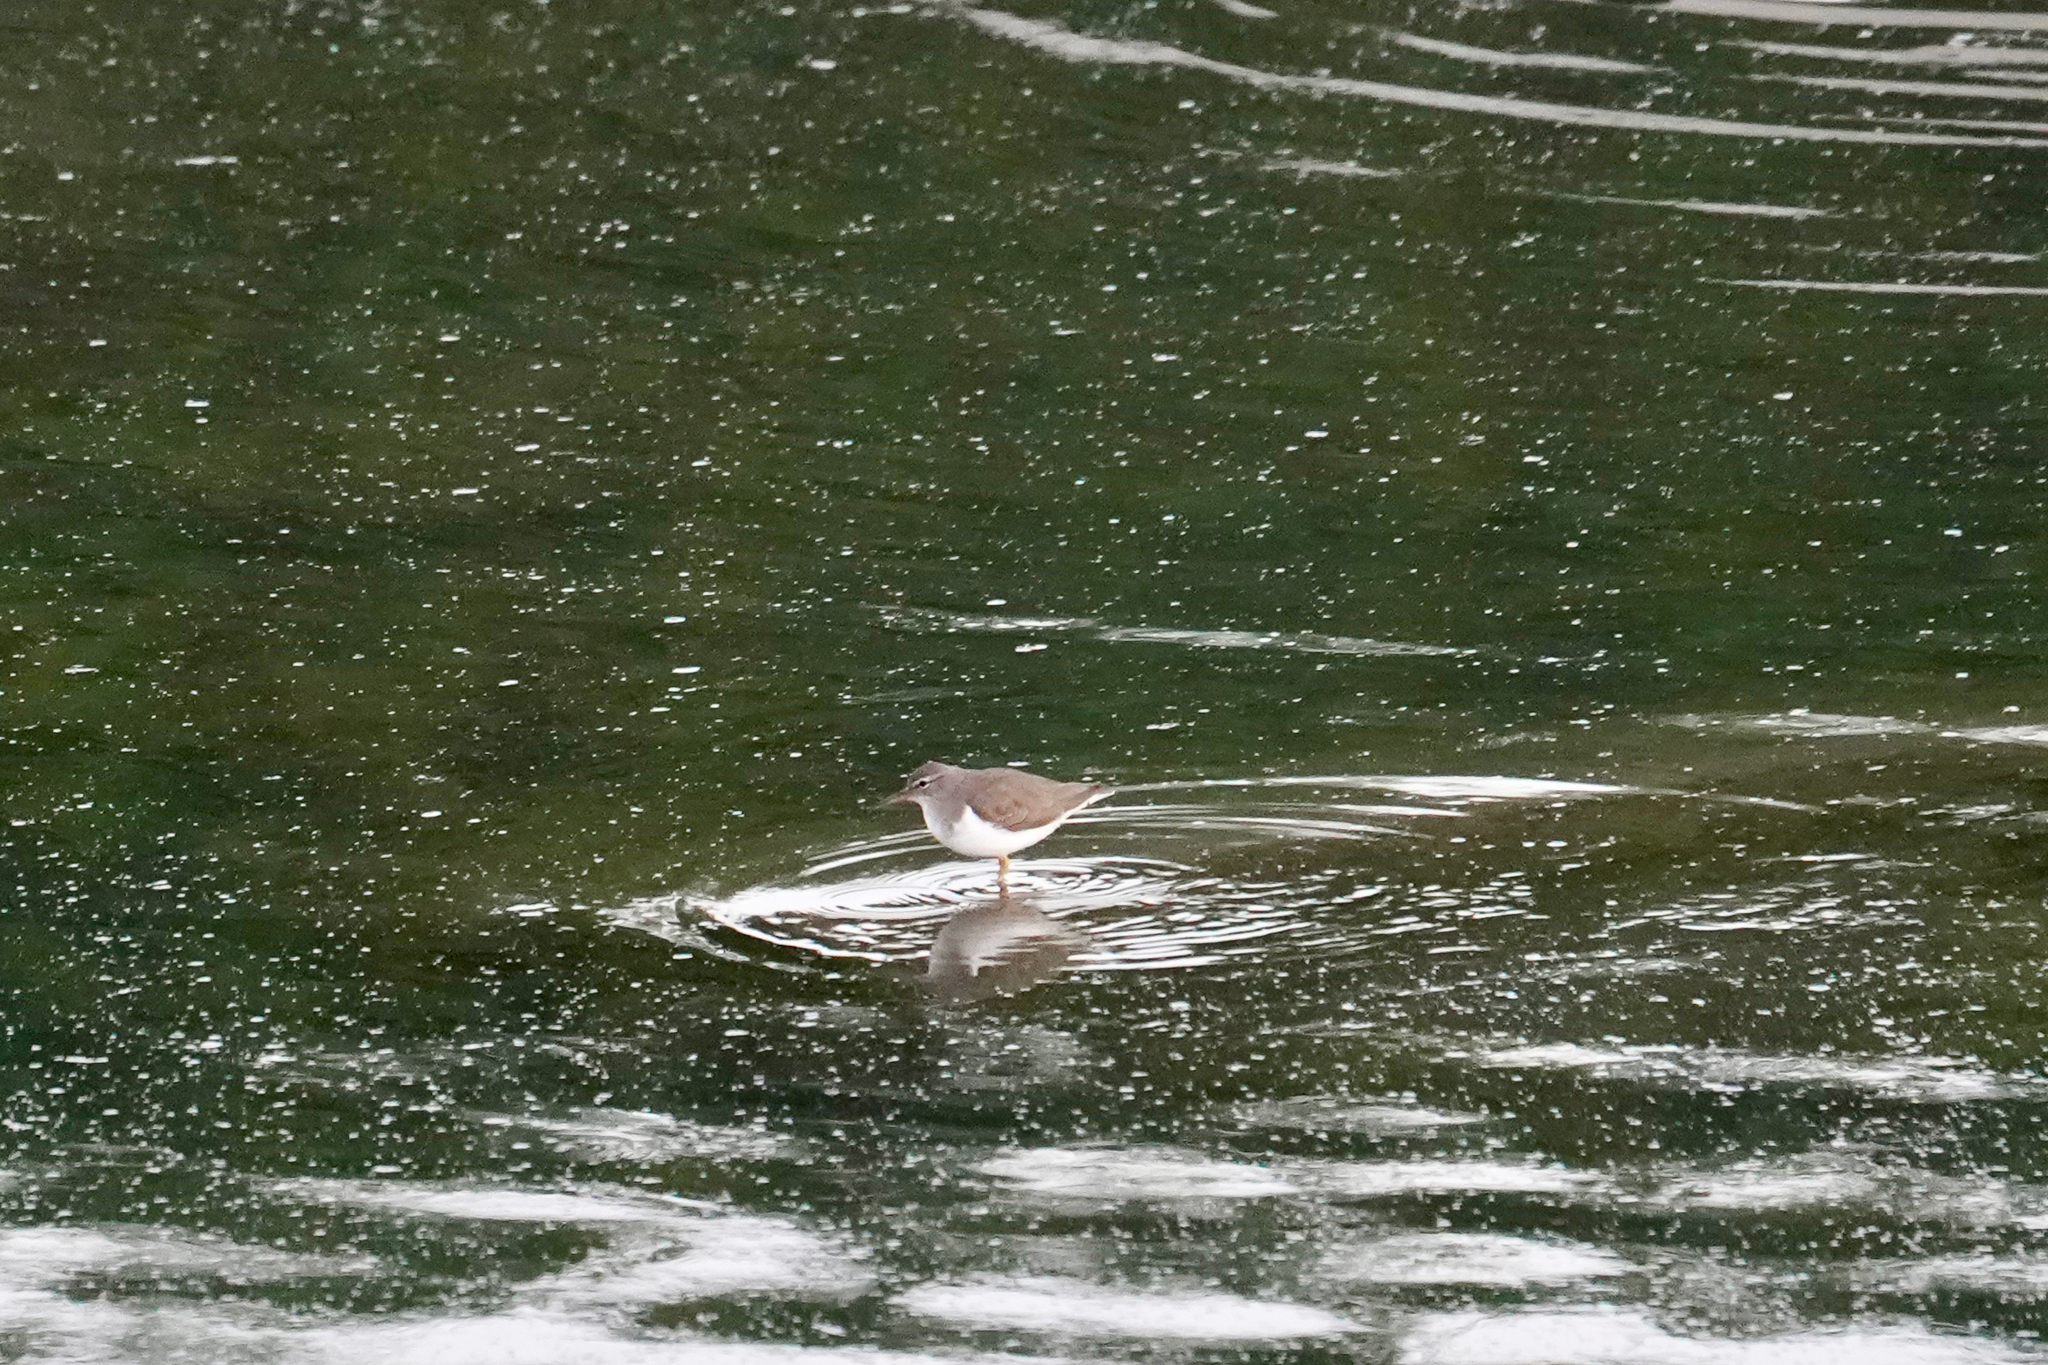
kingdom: Animalia
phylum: Chordata
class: Aves
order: Charadriiformes
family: Scolopacidae
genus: Actitis
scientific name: Actitis macularius
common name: Spotted sandpiper
